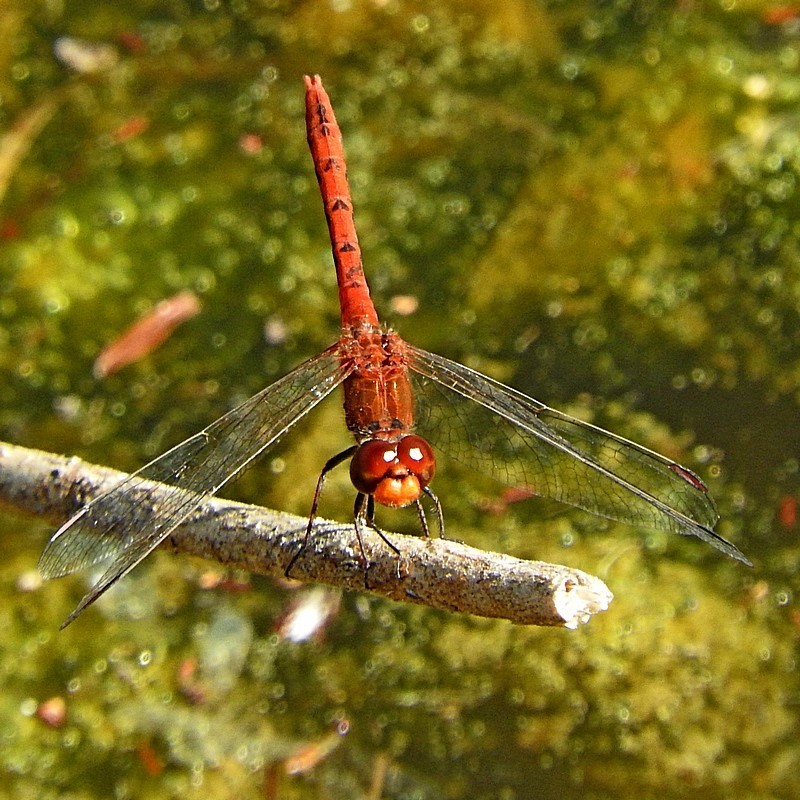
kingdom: Animalia
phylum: Arthropoda
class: Insecta
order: Odonata
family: Libellulidae
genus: Diplacodes
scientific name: Diplacodes bipunctata
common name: Red percher dragonfly
